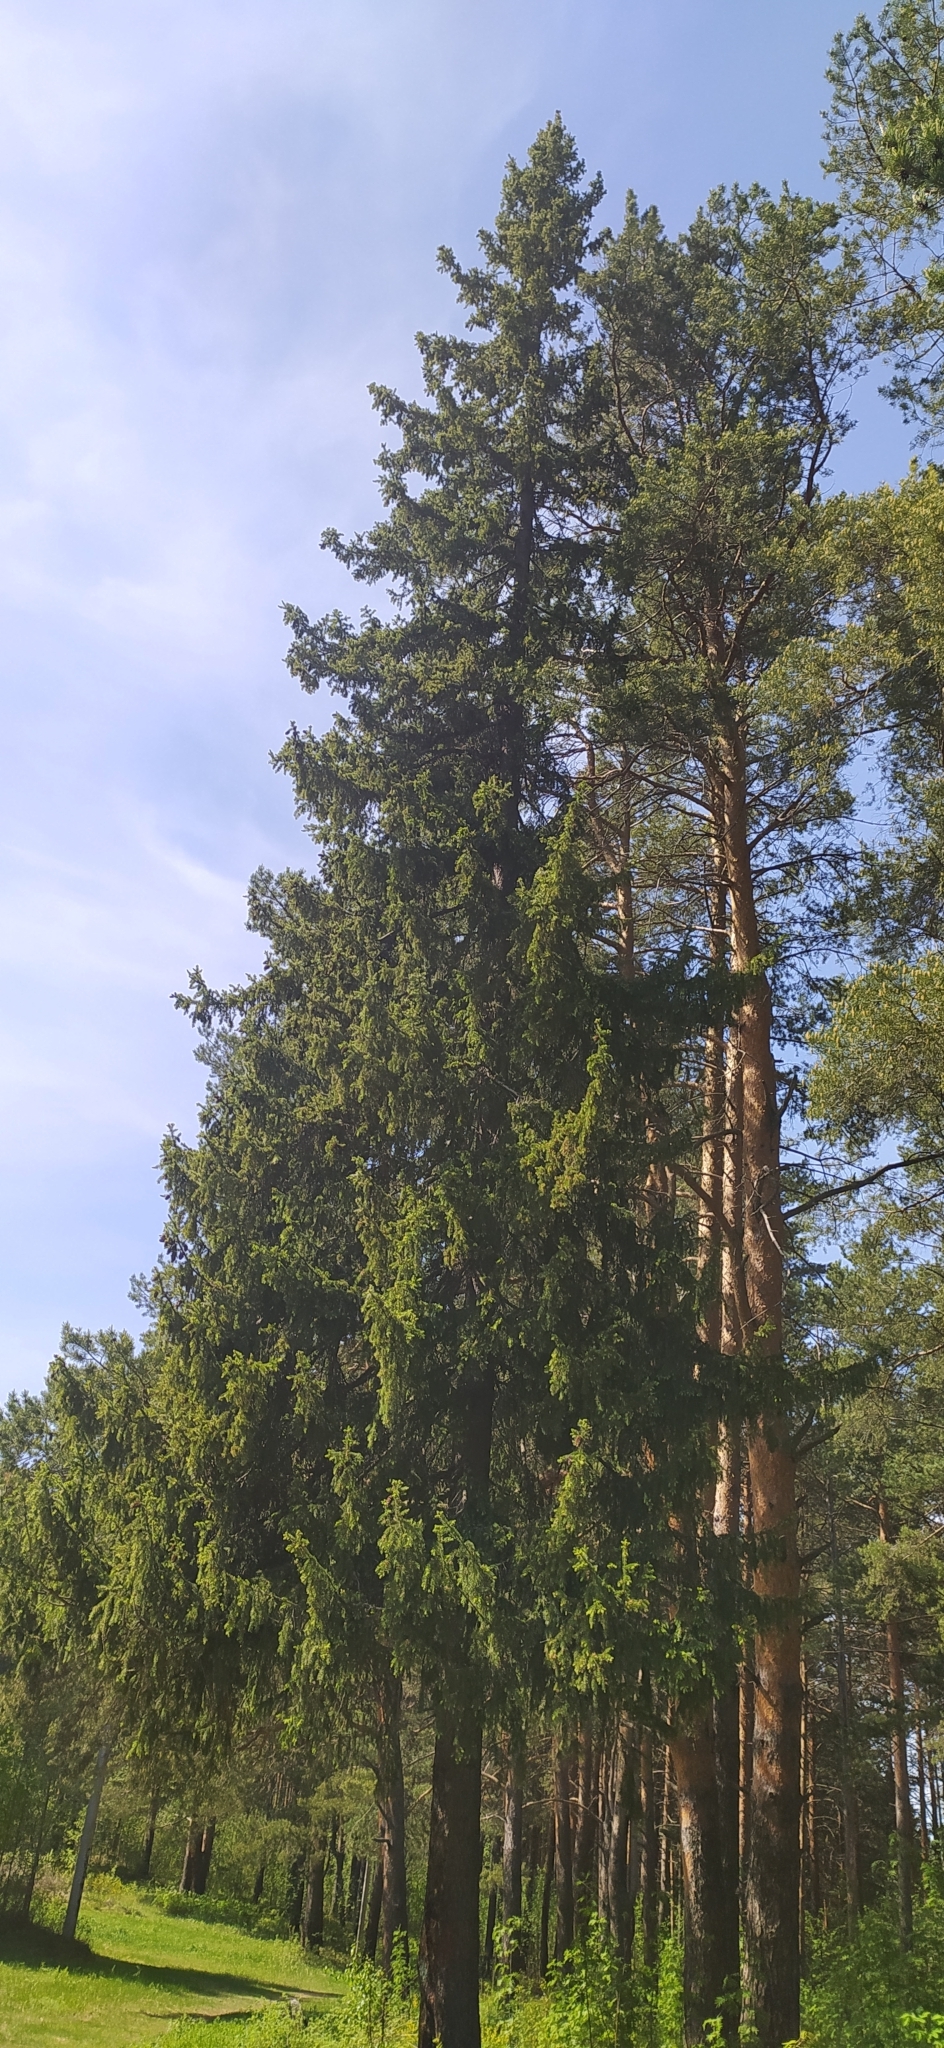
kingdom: Plantae
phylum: Tracheophyta
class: Pinopsida
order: Pinales
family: Pinaceae
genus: Picea
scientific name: Picea obovata
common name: Siberian spruce
